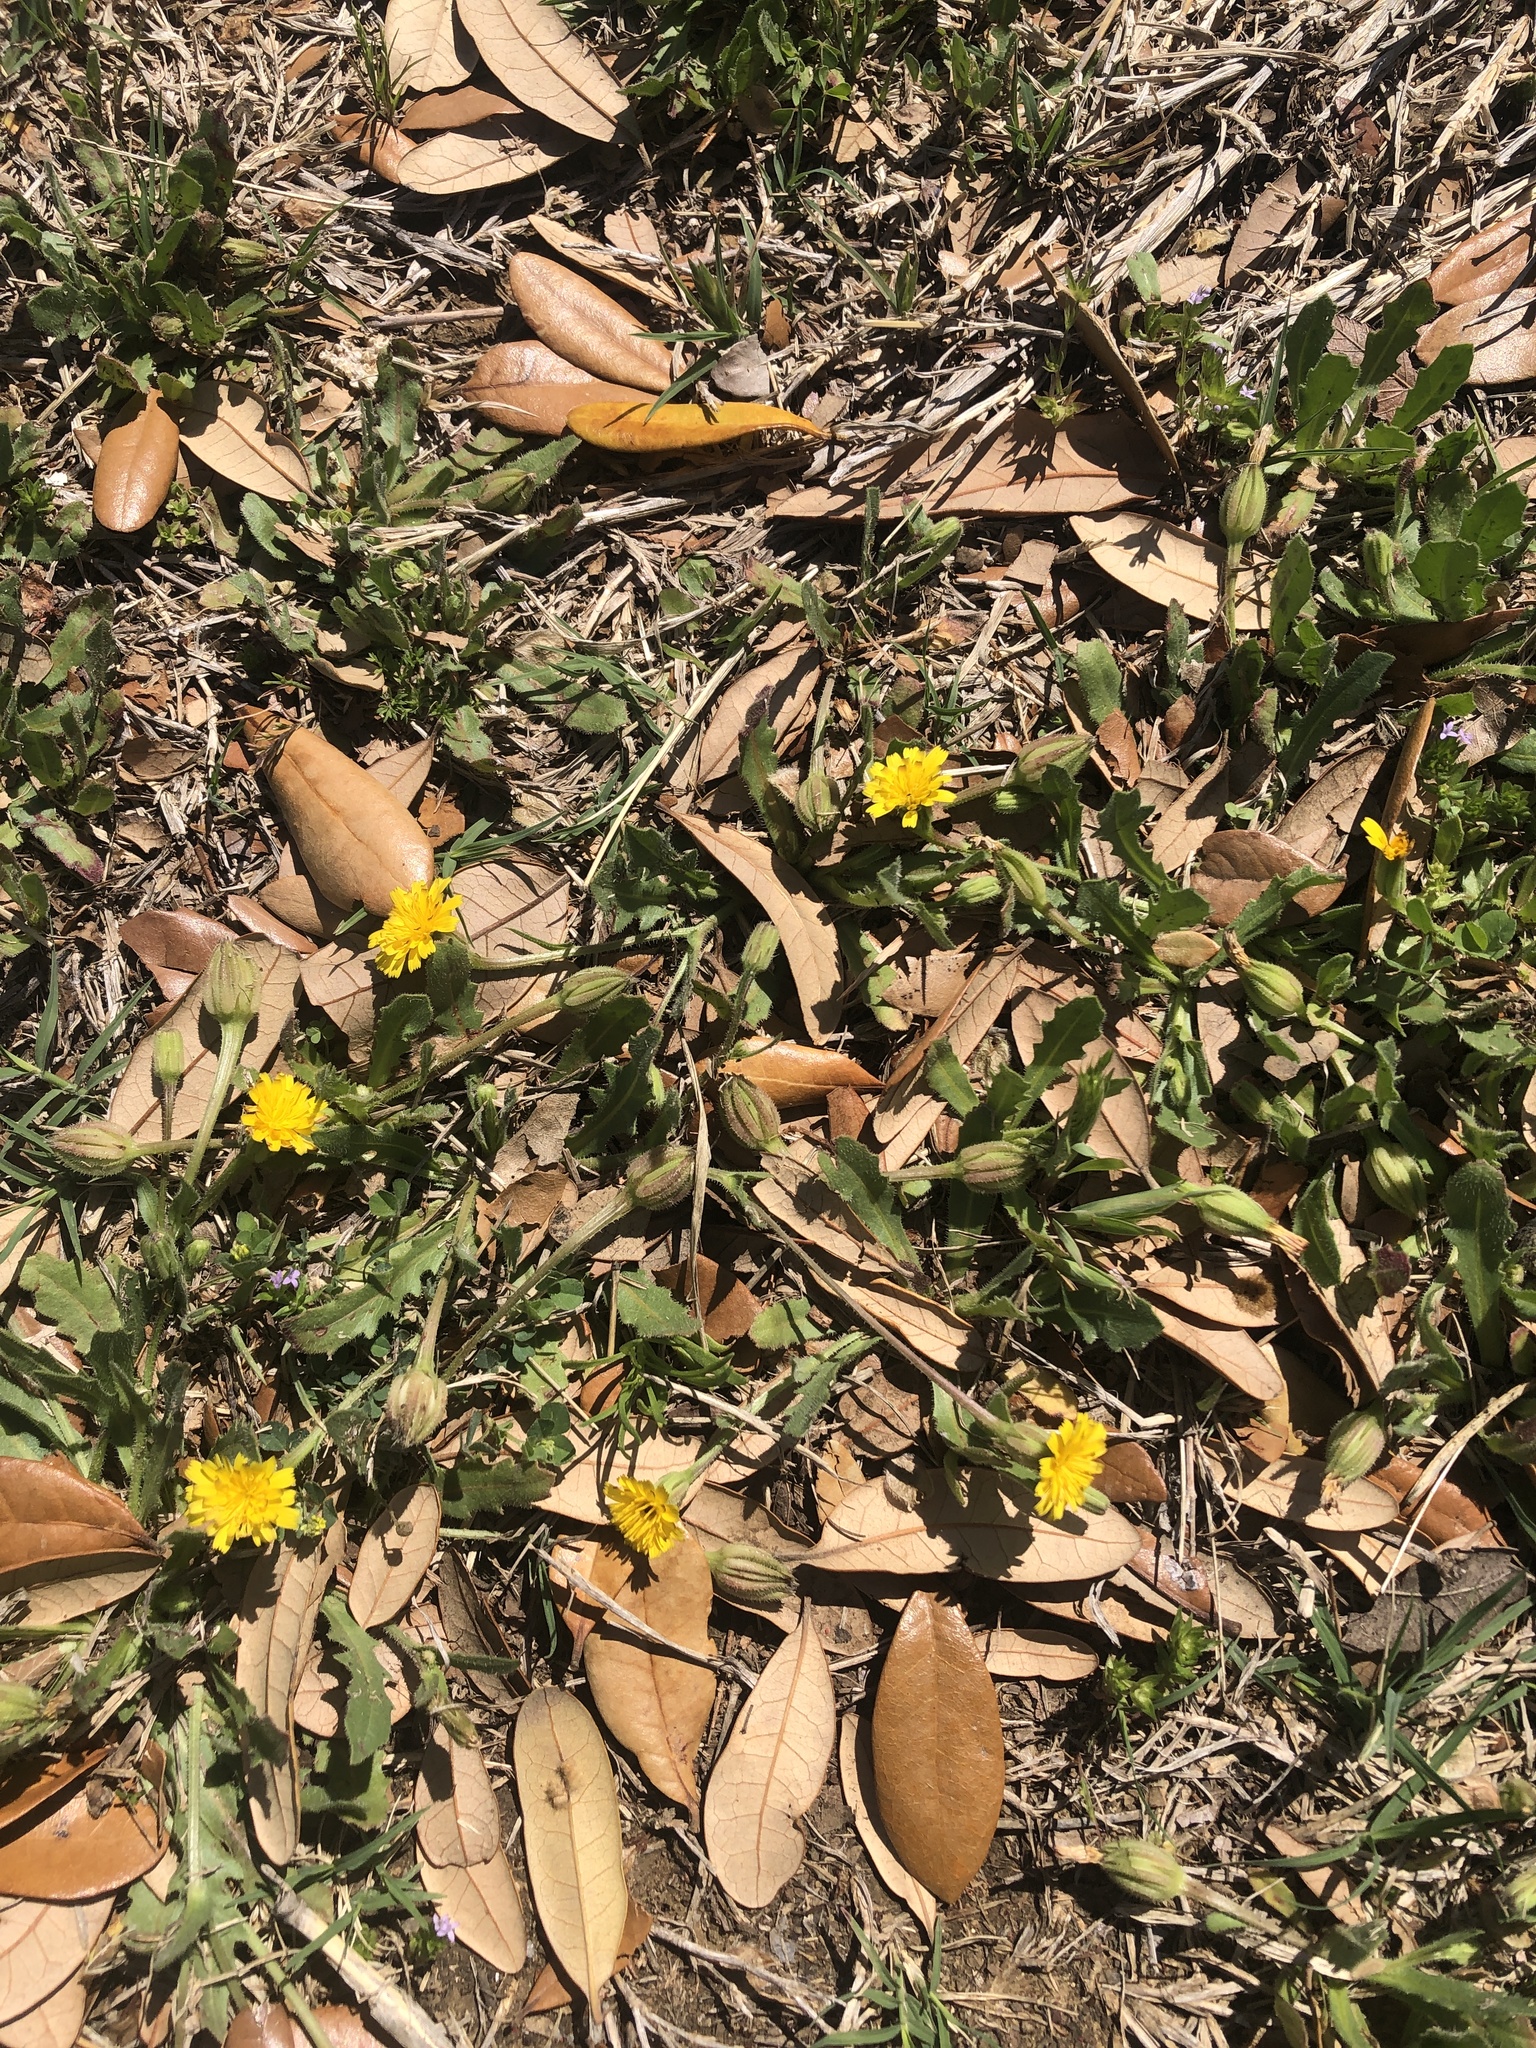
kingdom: Plantae
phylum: Tracheophyta
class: Magnoliopsida
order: Asterales
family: Asteraceae
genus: Hedypnois
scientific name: Hedypnois rhagadioloides
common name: Cretan weed
